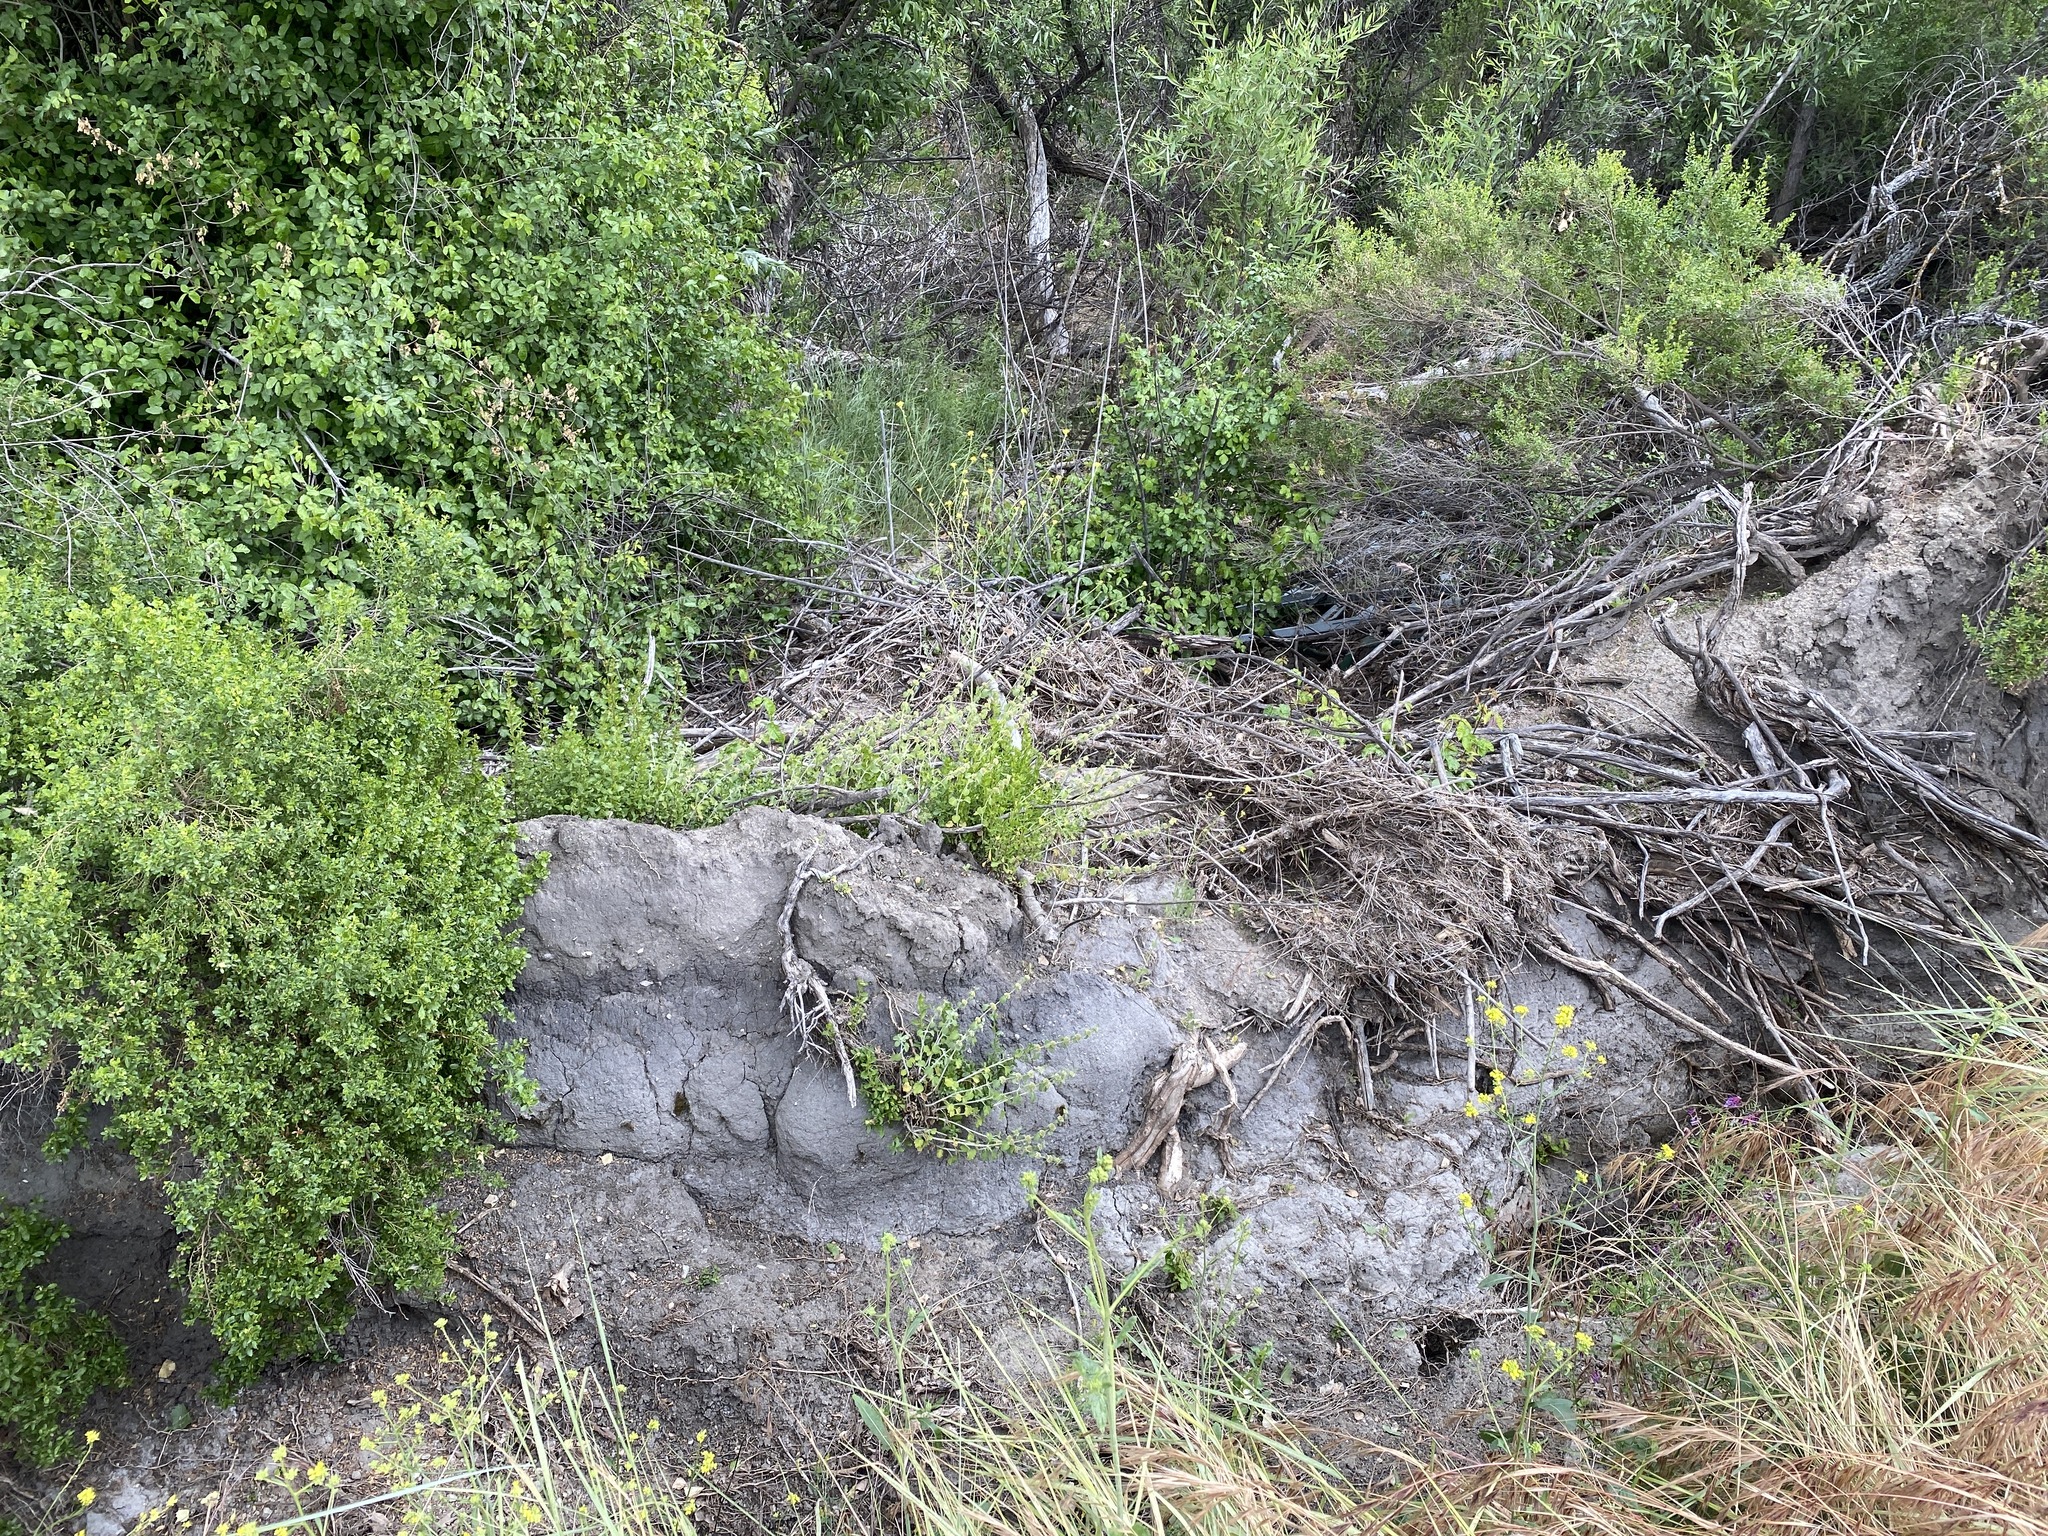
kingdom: Plantae
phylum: Tracheophyta
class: Magnoliopsida
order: Lamiales
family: Lamiaceae
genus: Marrubium
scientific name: Marrubium vulgare
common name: Horehound
